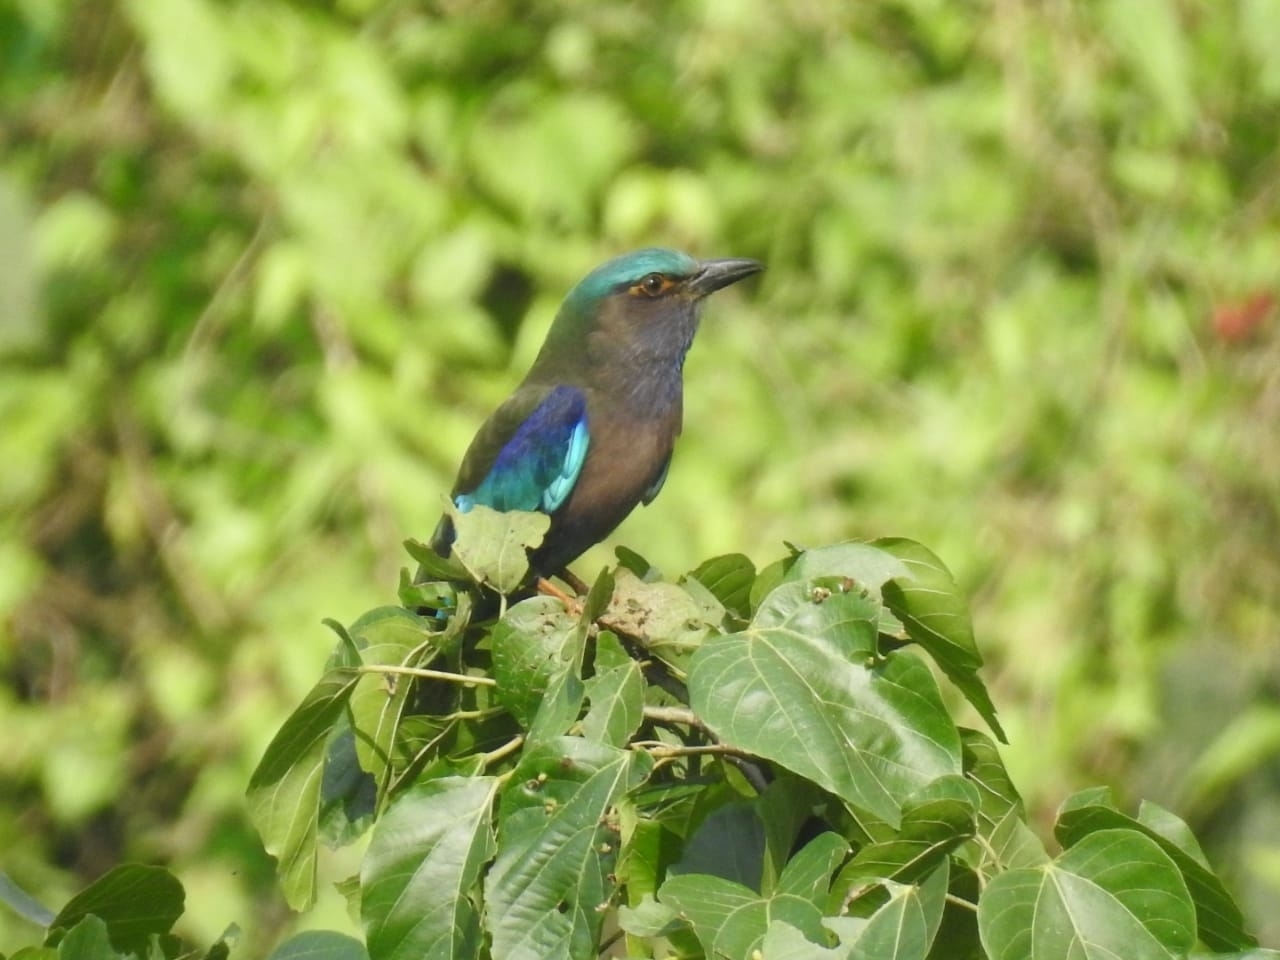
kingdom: Animalia
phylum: Chordata
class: Aves
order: Coraciiformes
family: Coraciidae
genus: Coracias
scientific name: Coracias affinis
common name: Indochinese roller
